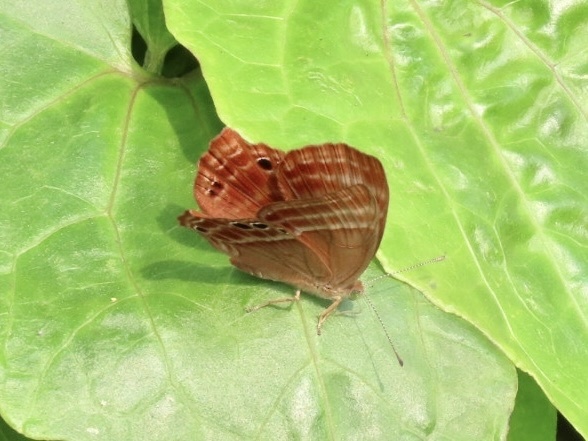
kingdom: Animalia
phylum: Arthropoda
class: Insecta
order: Lepidoptera
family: Lycaenidae
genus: Abisara
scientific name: Abisara echeria
